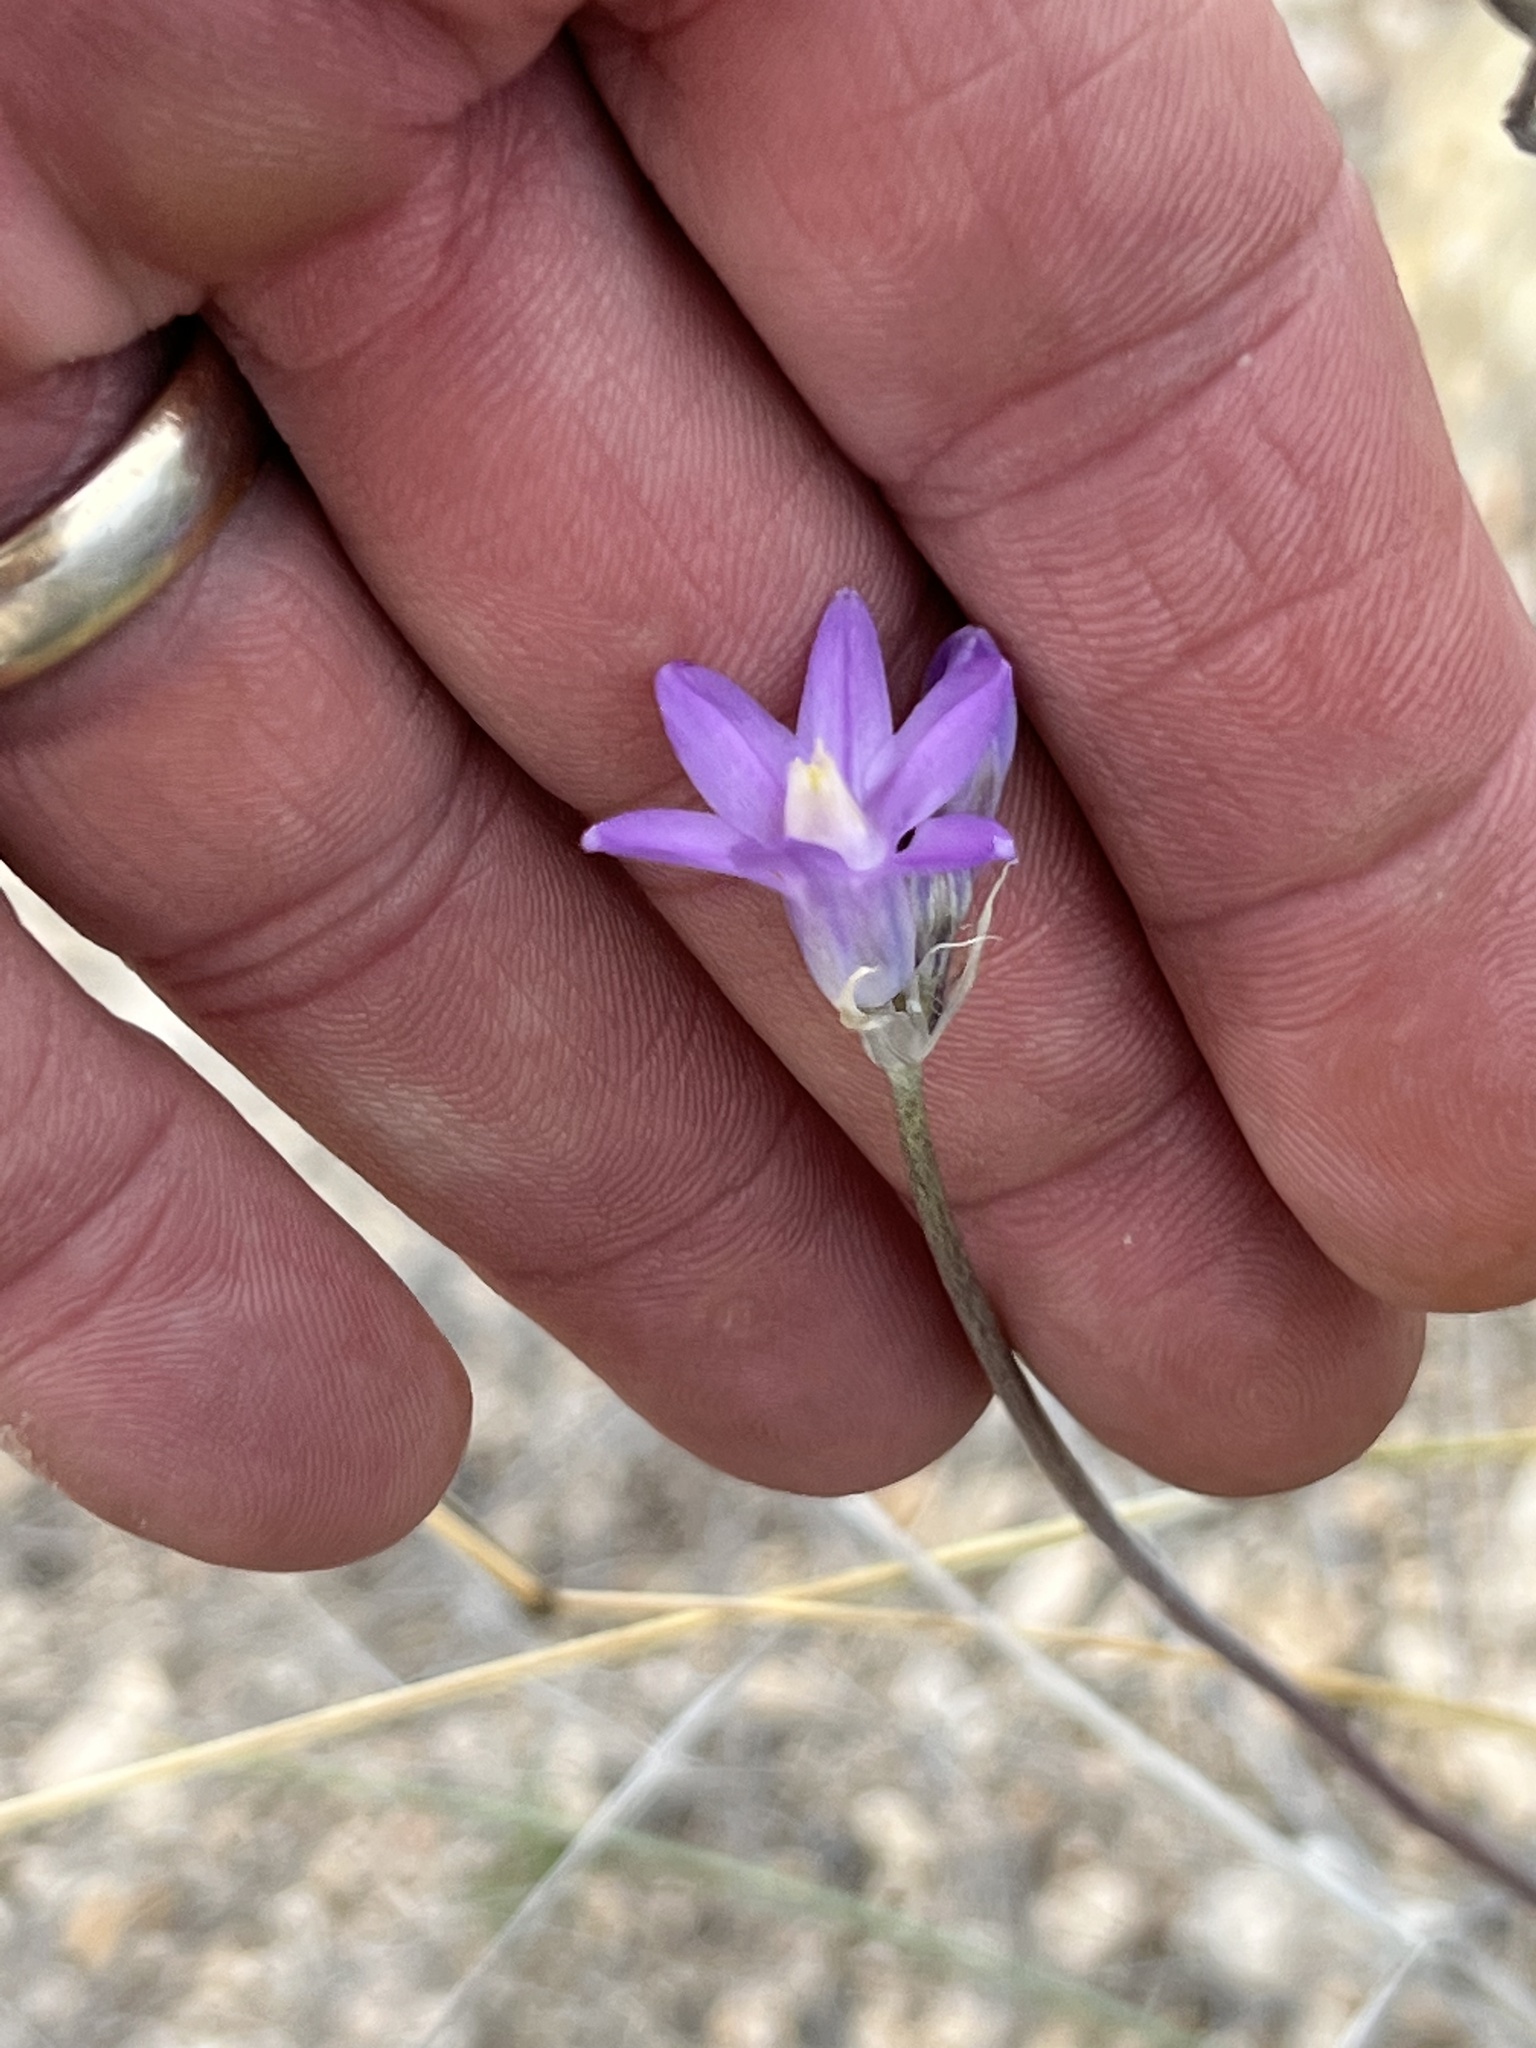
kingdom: Plantae
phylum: Tracheophyta
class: Liliopsida
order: Asparagales
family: Asparagaceae
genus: Dipterostemon
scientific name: Dipterostemon capitatus
